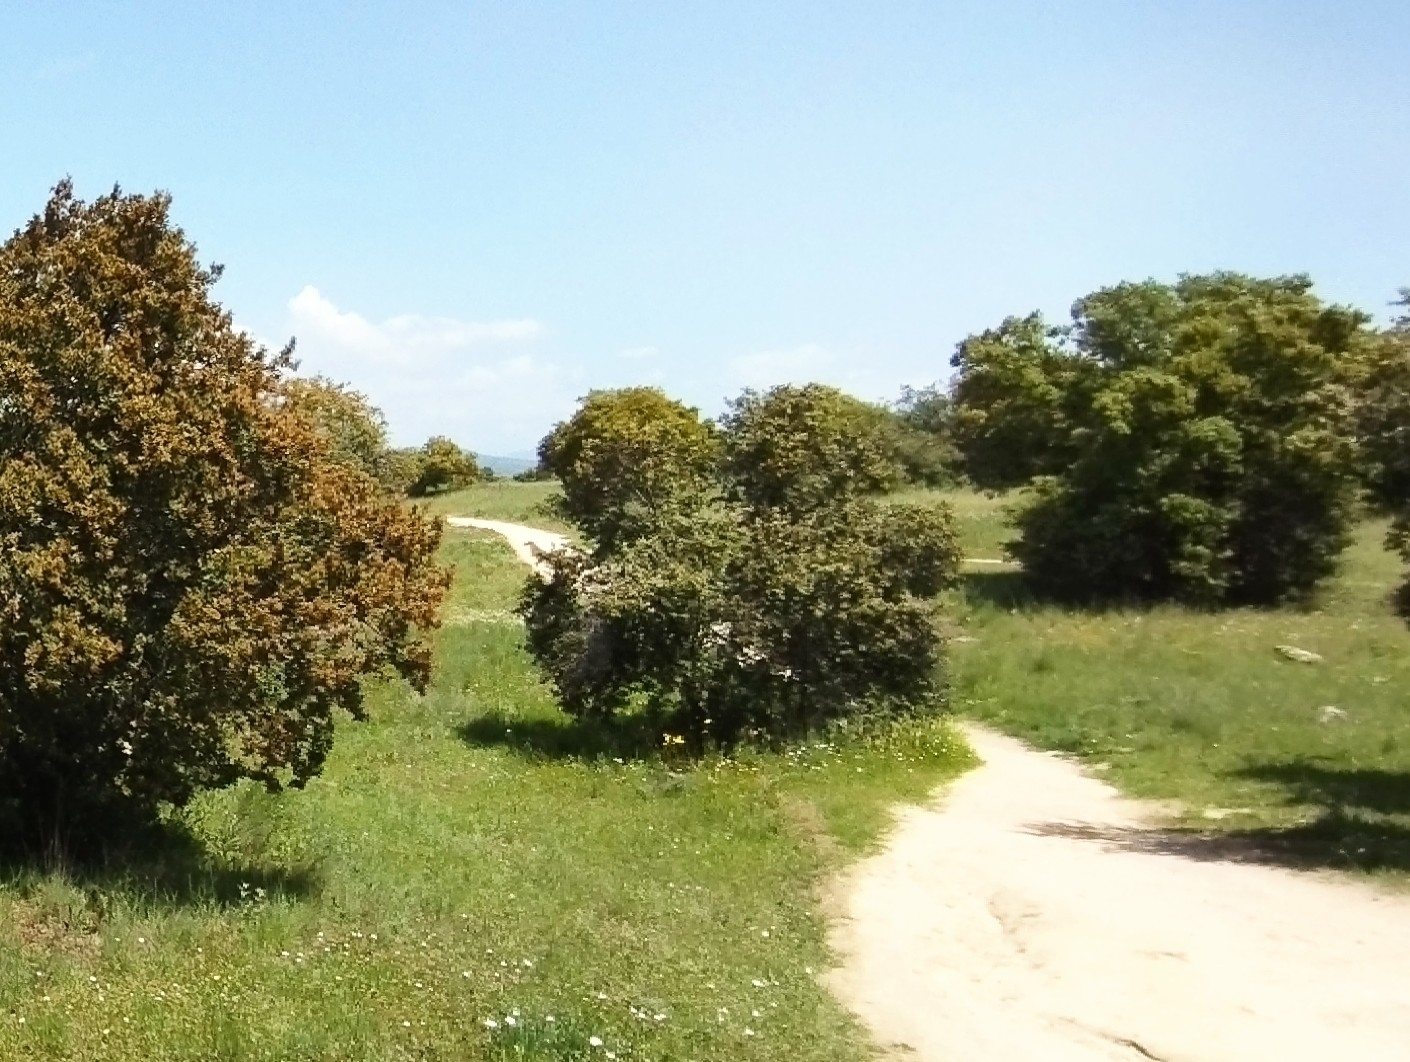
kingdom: Plantae
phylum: Tracheophyta
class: Magnoliopsida
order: Fagales
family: Fagaceae
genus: Quercus
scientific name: Quercus rotundifolia
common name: Holm oak
